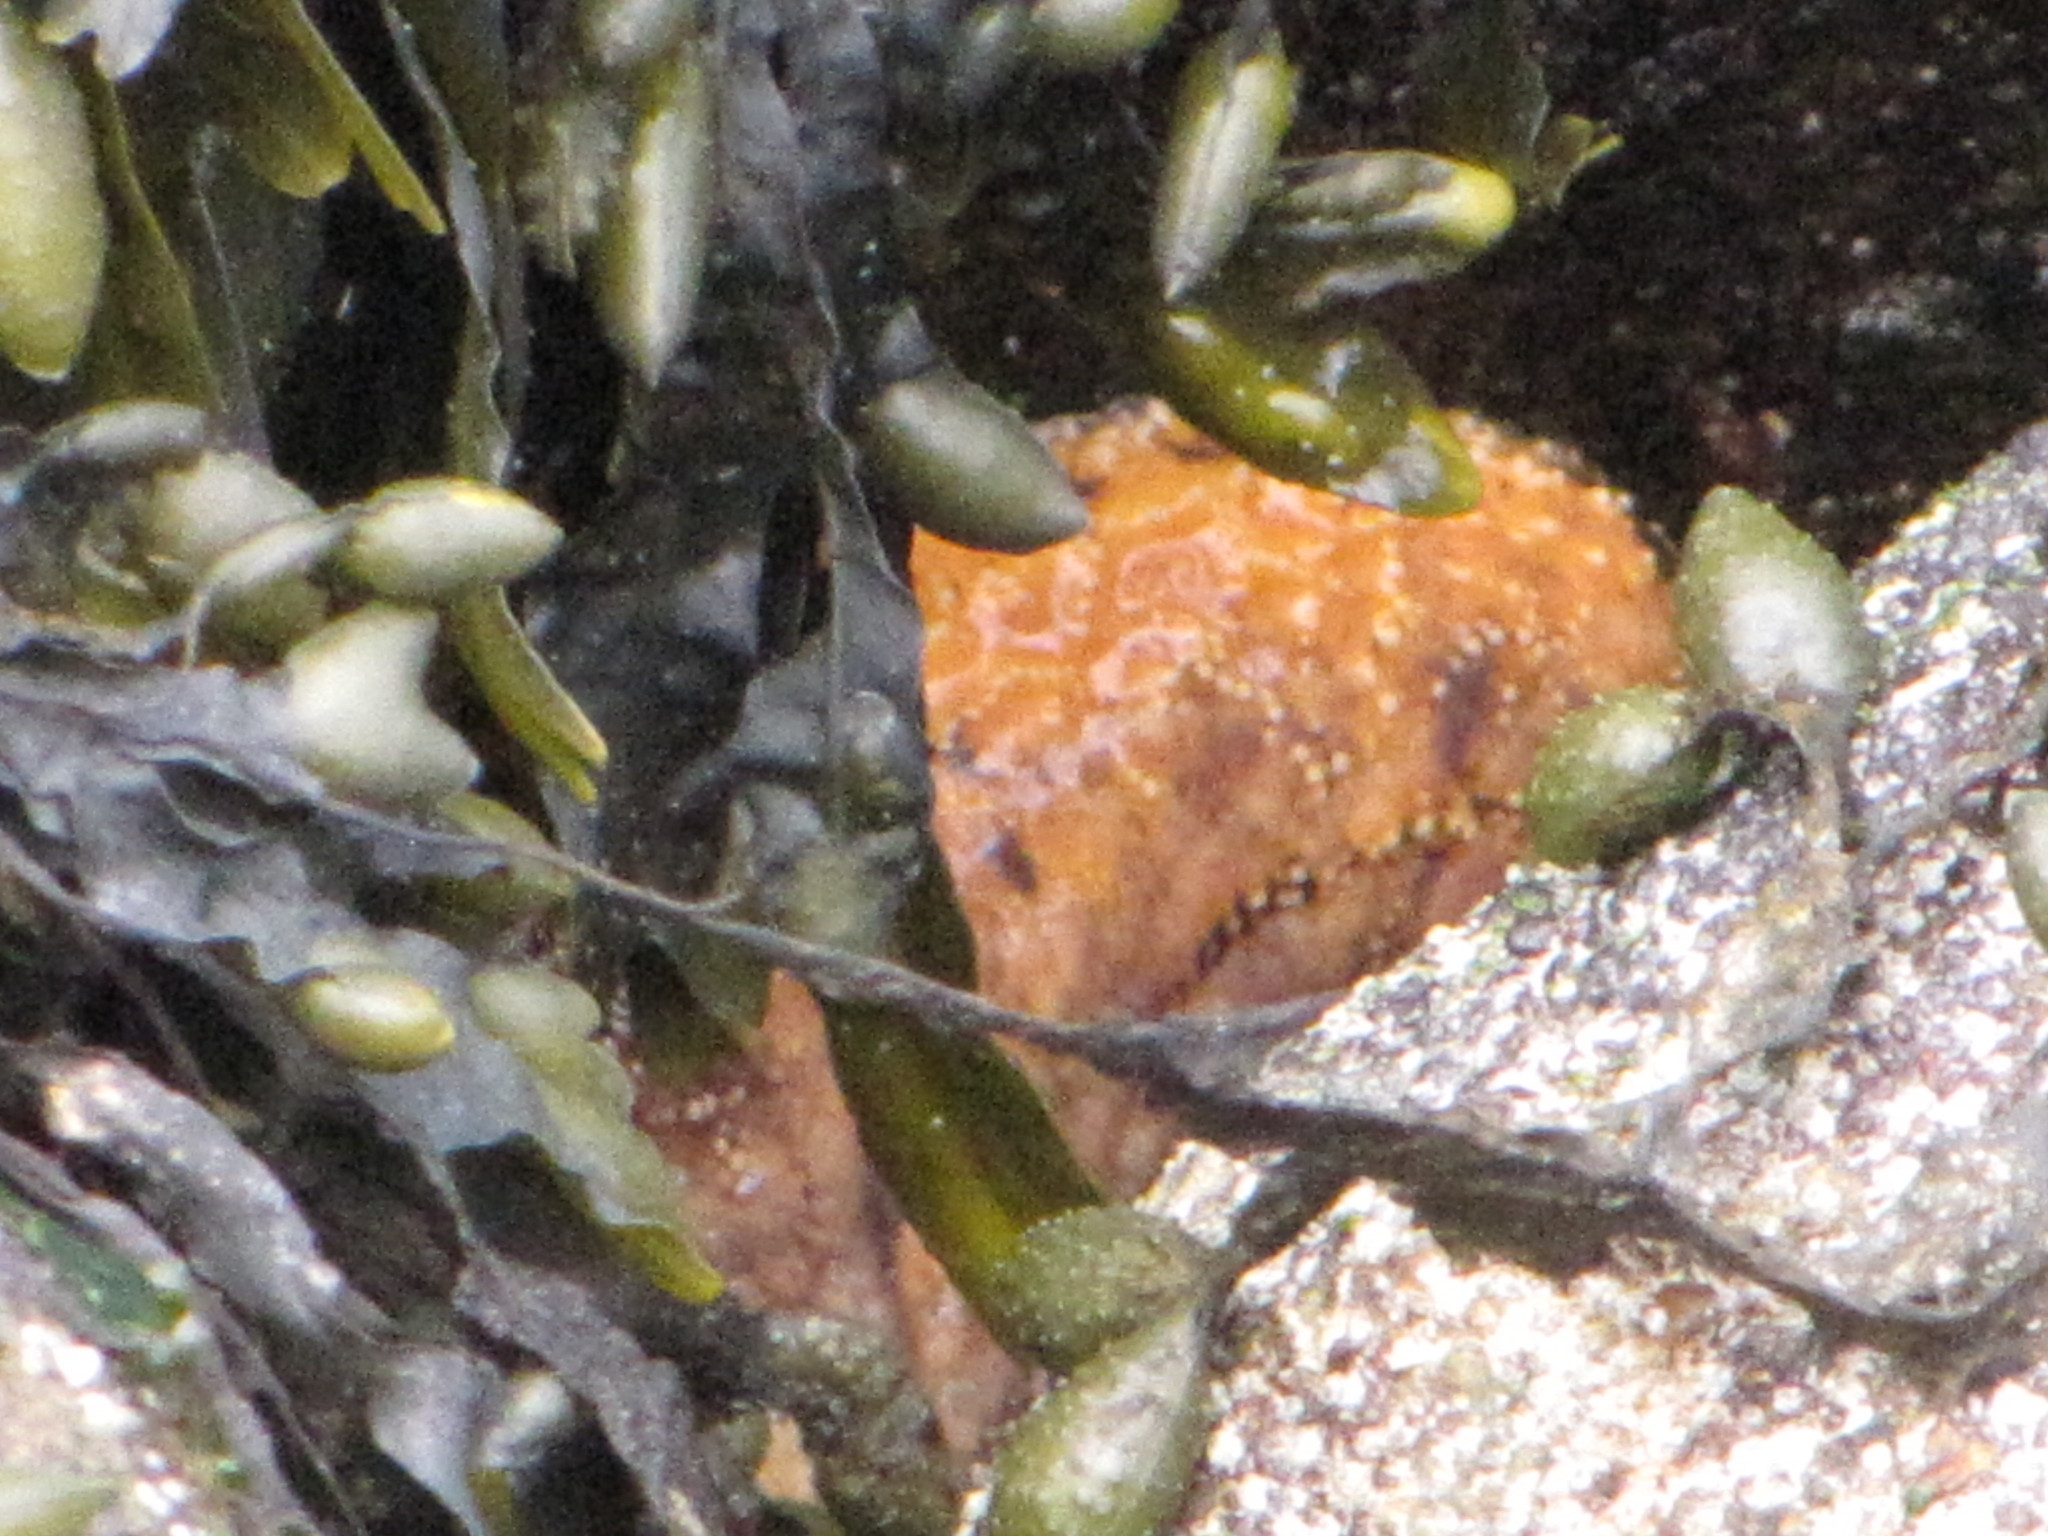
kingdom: Animalia
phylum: Echinodermata
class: Asteroidea
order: Forcipulatida
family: Asteriidae
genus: Pisaster
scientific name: Pisaster ochraceus
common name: Ochre stars
